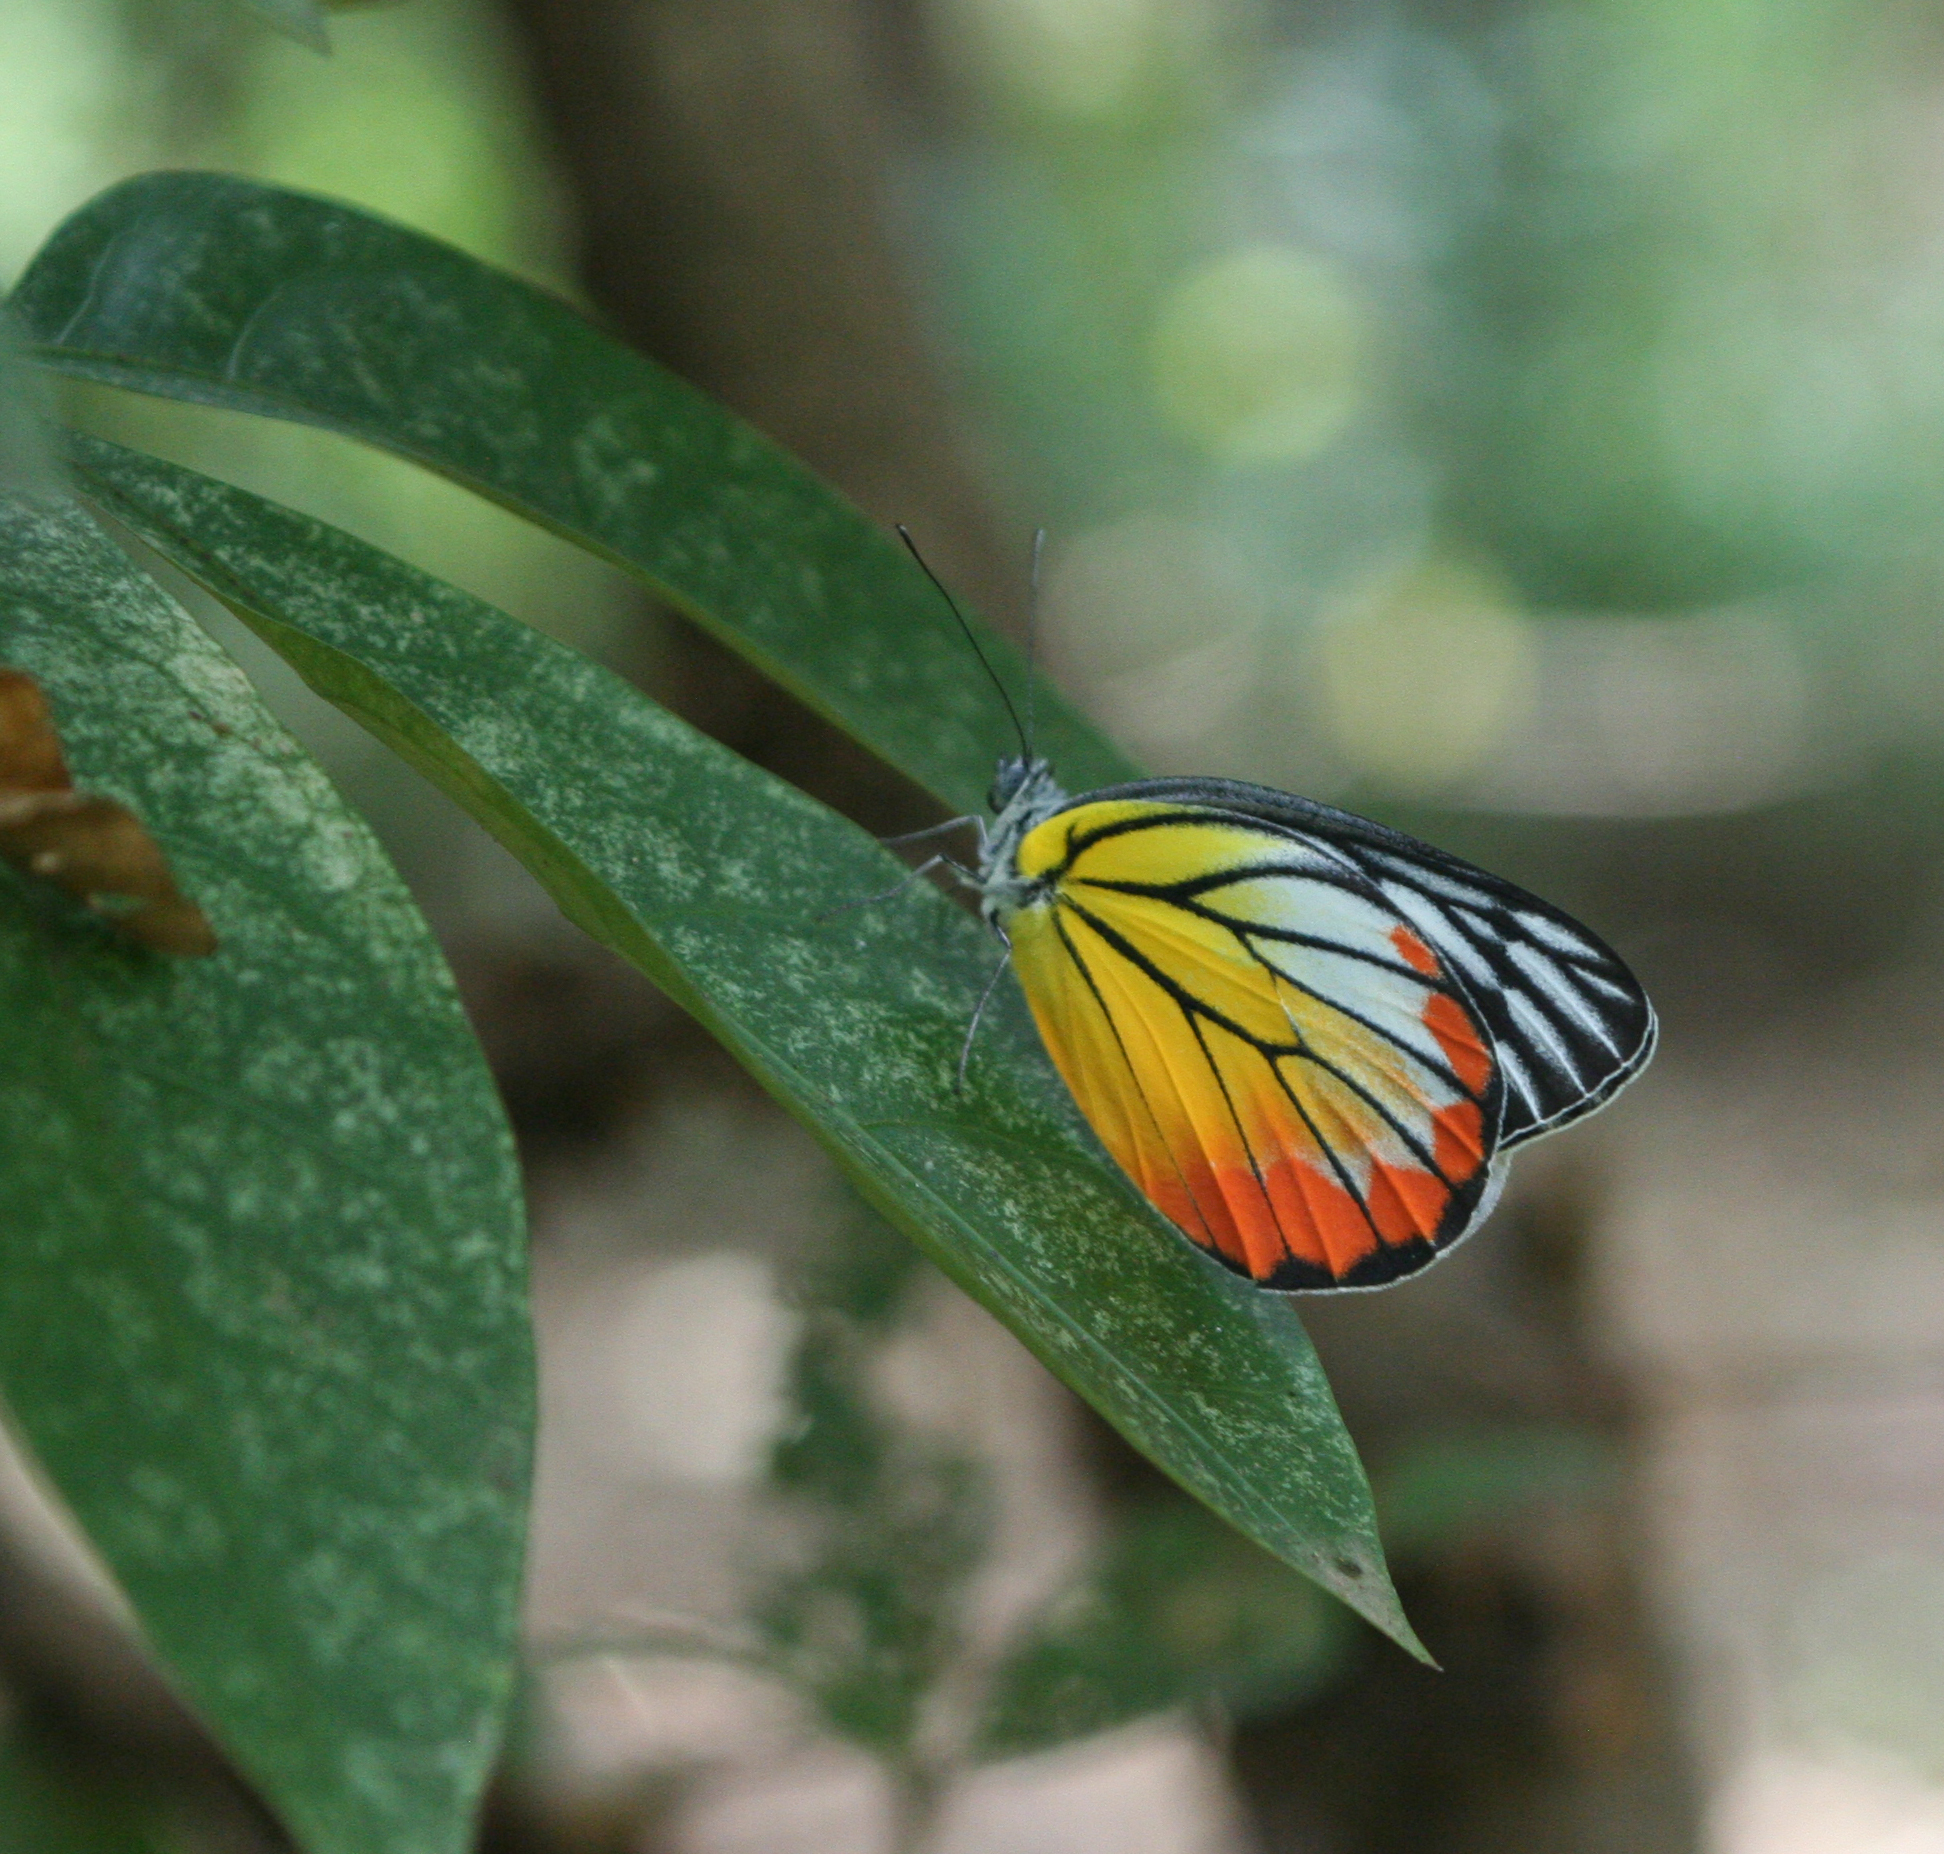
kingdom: Animalia
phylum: Arthropoda
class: Insecta
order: Lepidoptera
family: Pieridae
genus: Delias
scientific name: Delias hyparete
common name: Painted jezebel
